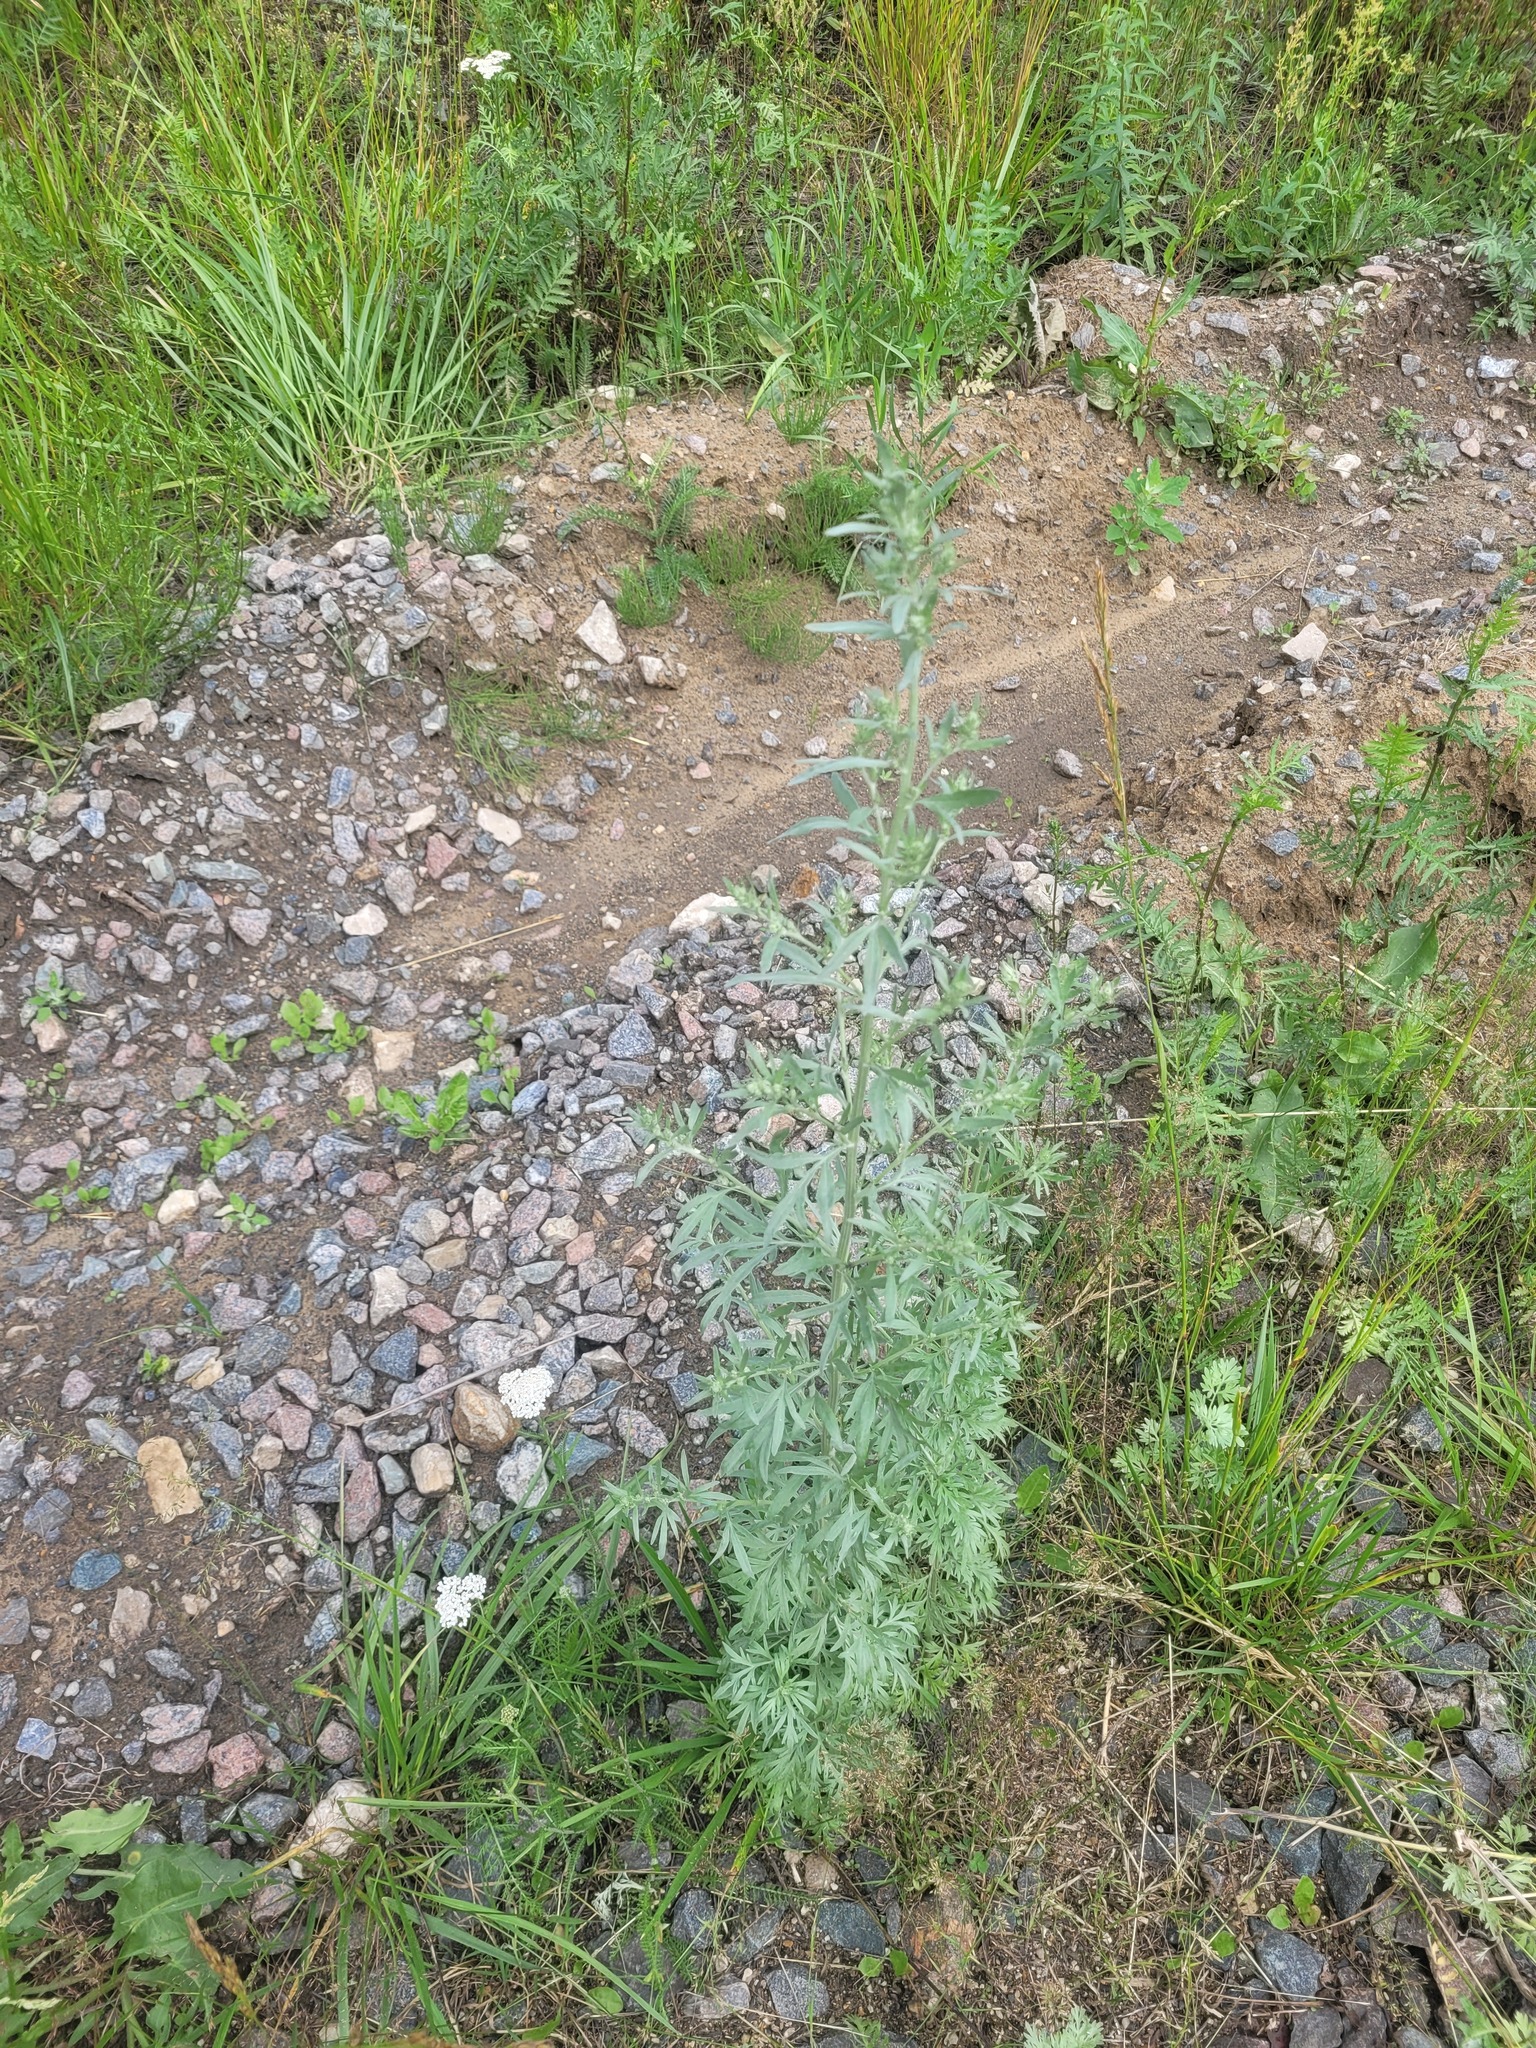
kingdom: Plantae
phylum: Tracheophyta
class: Magnoliopsida
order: Asterales
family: Asteraceae
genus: Artemisia
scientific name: Artemisia absinthium
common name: Wormwood
